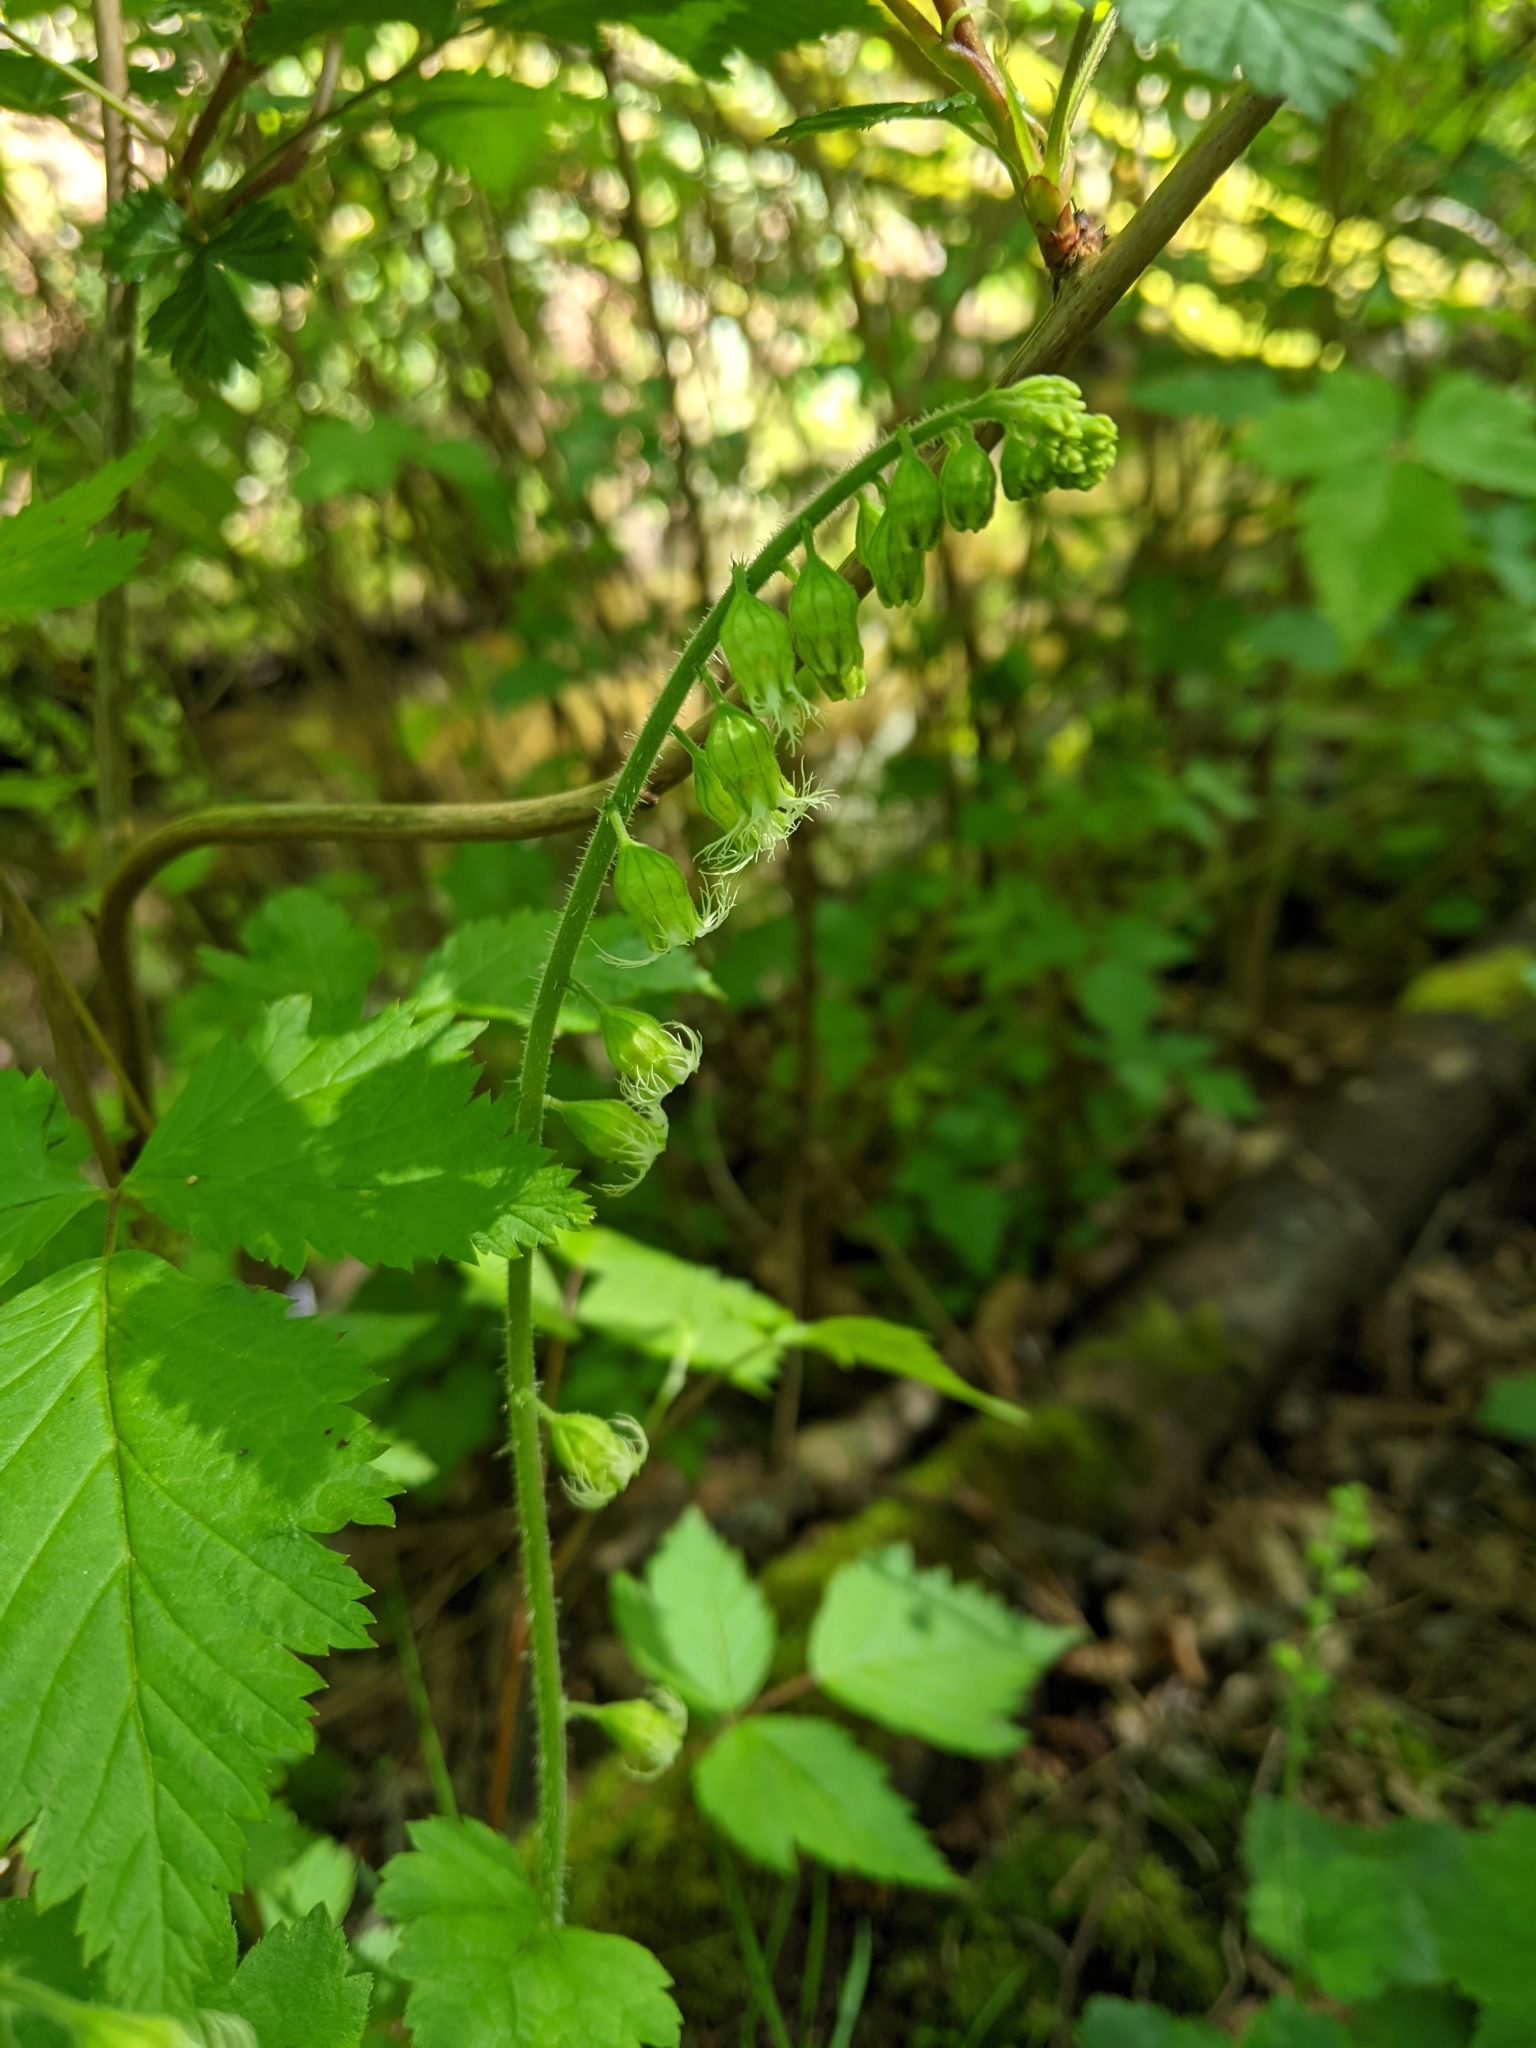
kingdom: Plantae
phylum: Tracheophyta
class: Magnoliopsida
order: Saxifragales
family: Saxifragaceae
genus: Tellima
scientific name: Tellima grandiflora
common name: Fringecups
